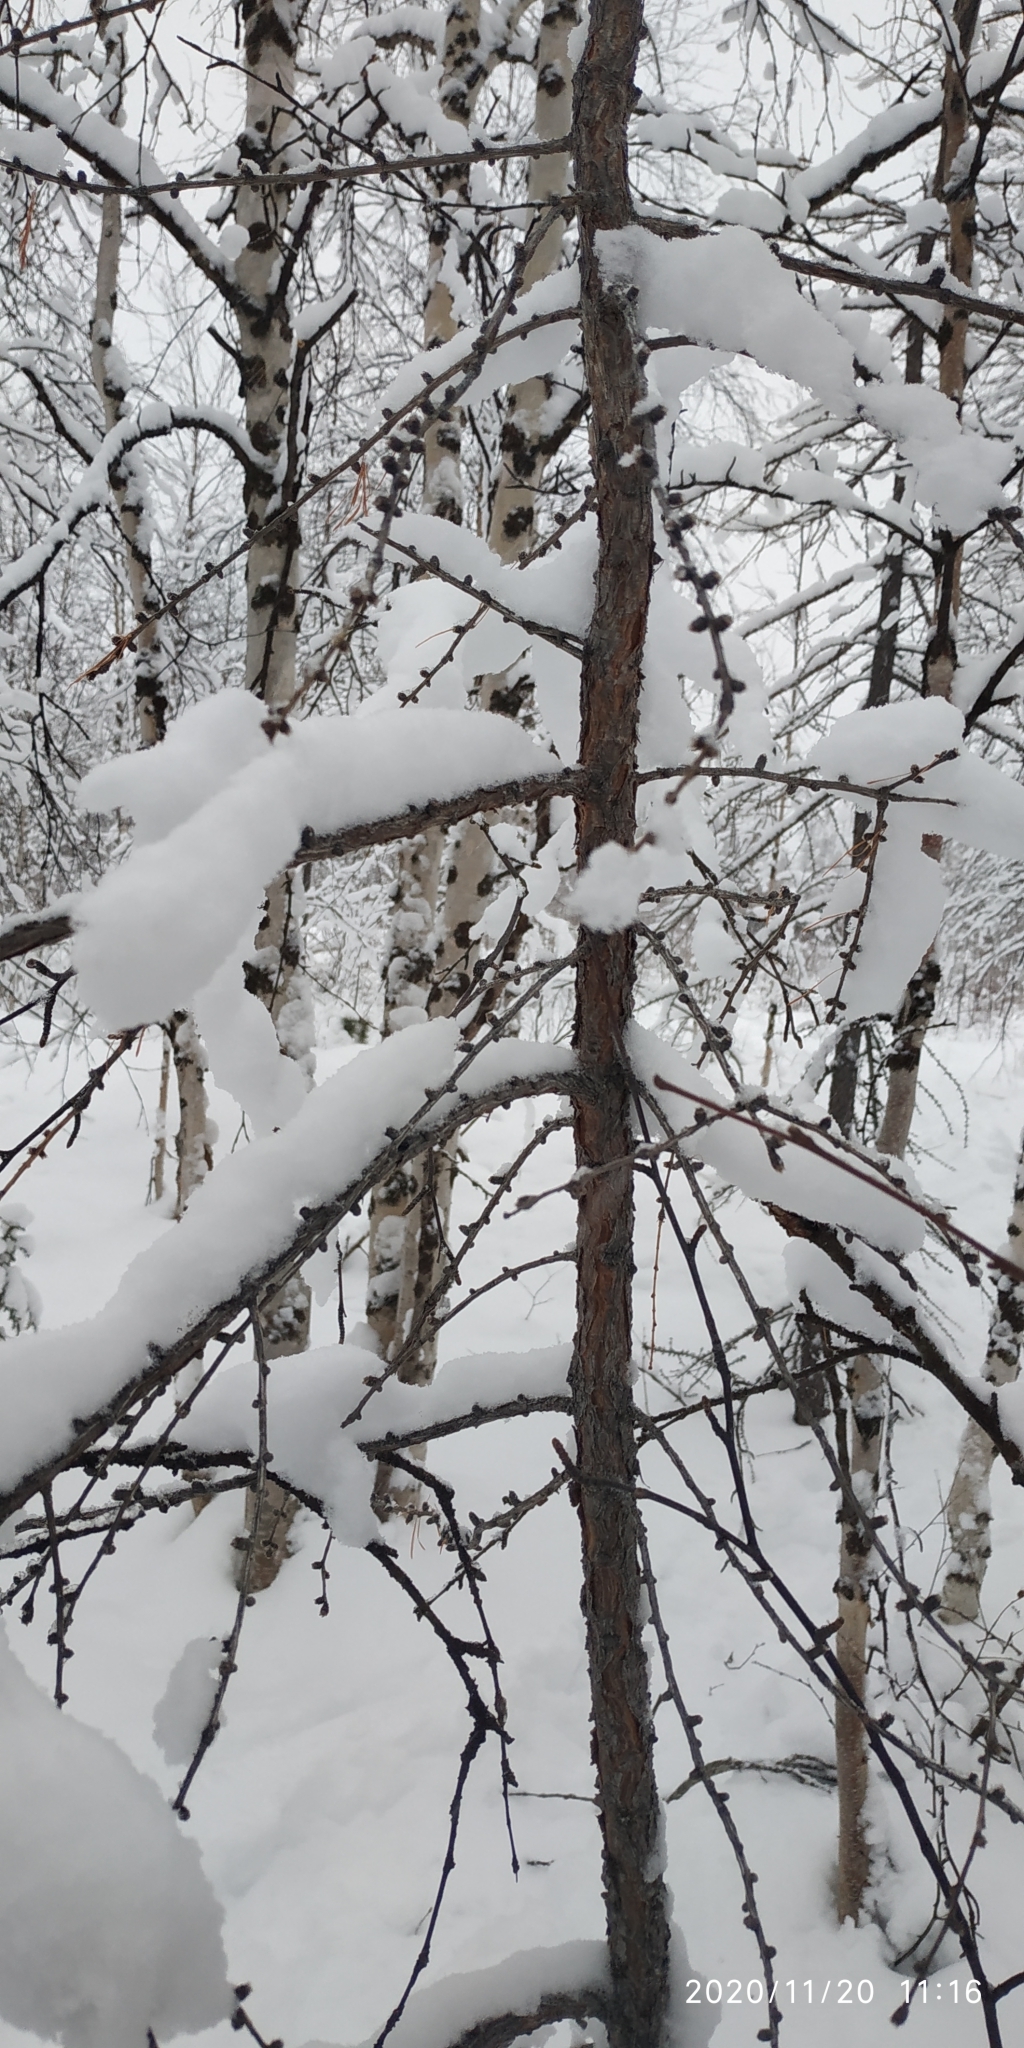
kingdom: Plantae
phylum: Tracheophyta
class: Pinopsida
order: Pinales
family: Pinaceae
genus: Larix
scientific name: Larix sibirica
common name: Siberian larch
